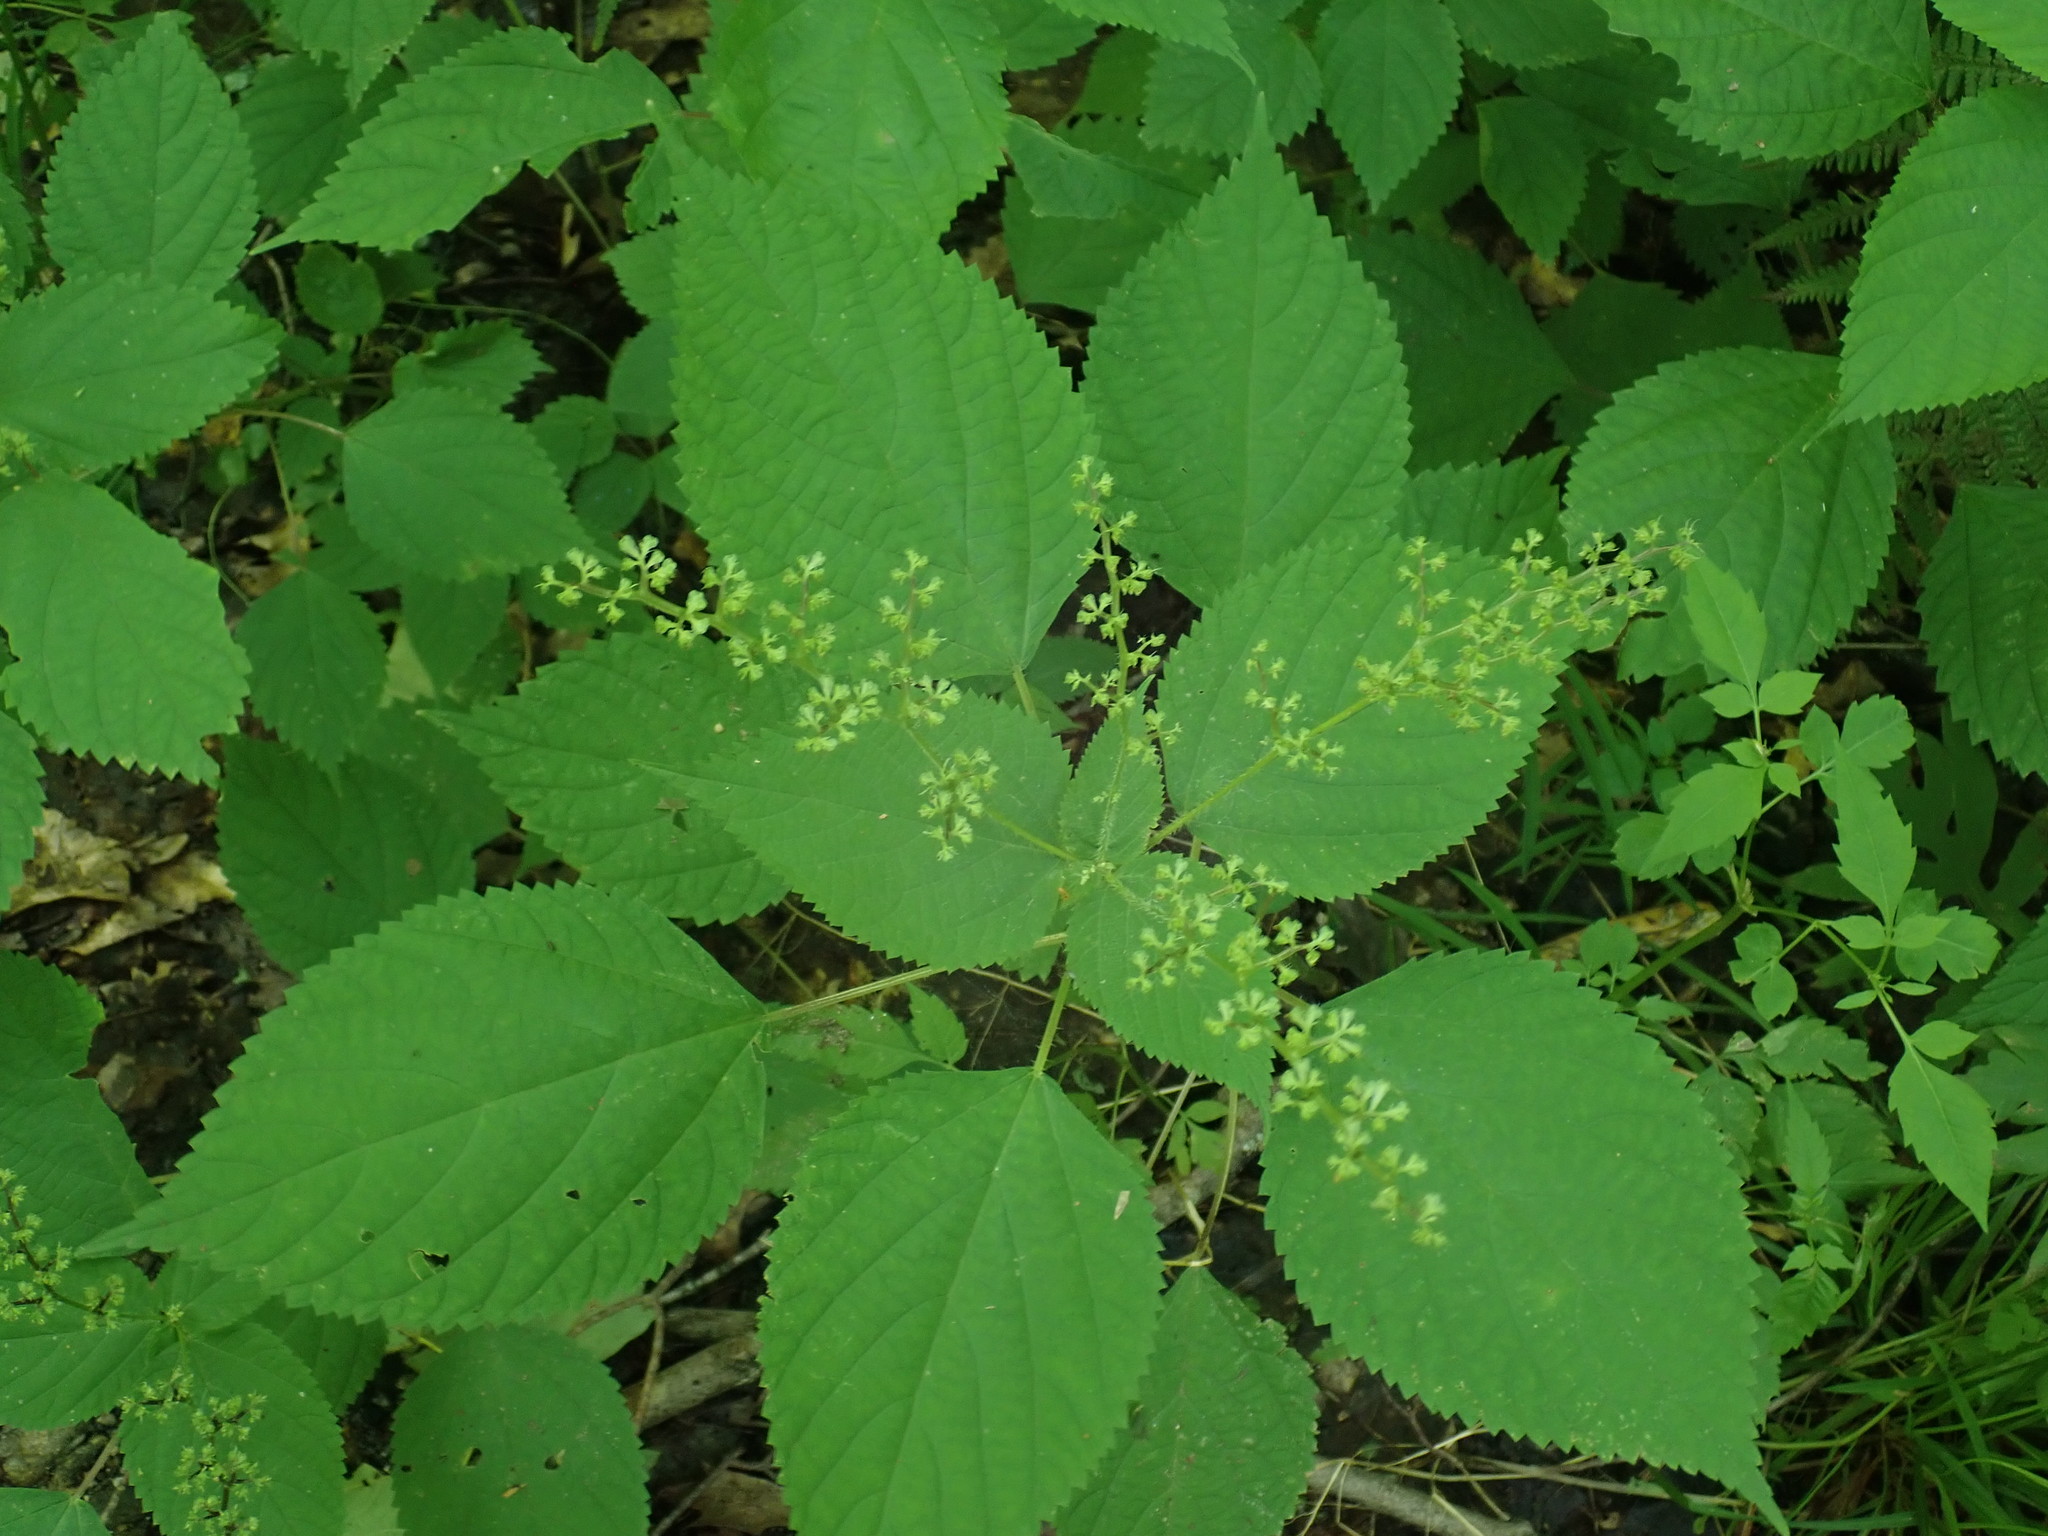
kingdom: Plantae
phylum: Tracheophyta
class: Magnoliopsida
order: Rosales
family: Urticaceae
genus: Laportea
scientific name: Laportea canadensis
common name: Canada nettle
